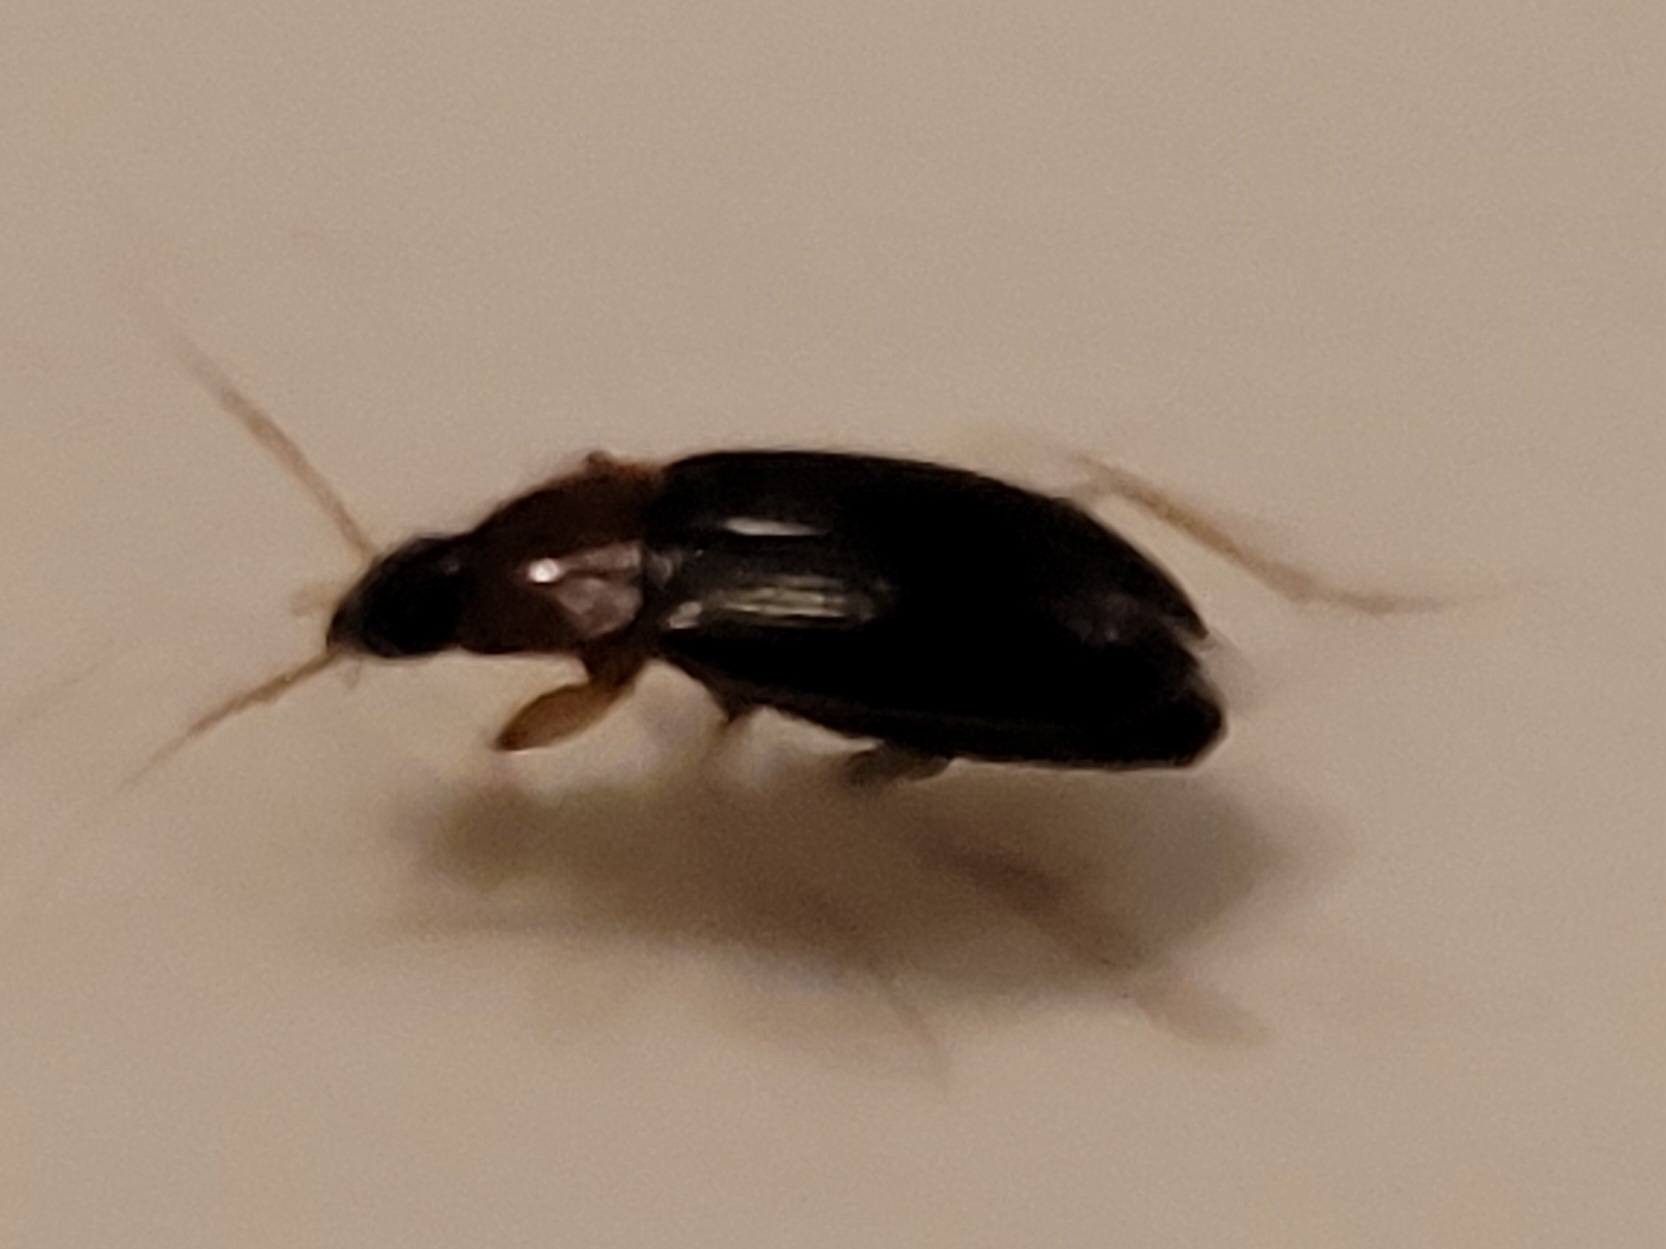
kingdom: Animalia
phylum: Arthropoda
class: Insecta
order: Coleoptera
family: Carabidae
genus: Calathus
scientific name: Calathus melanocephalus
